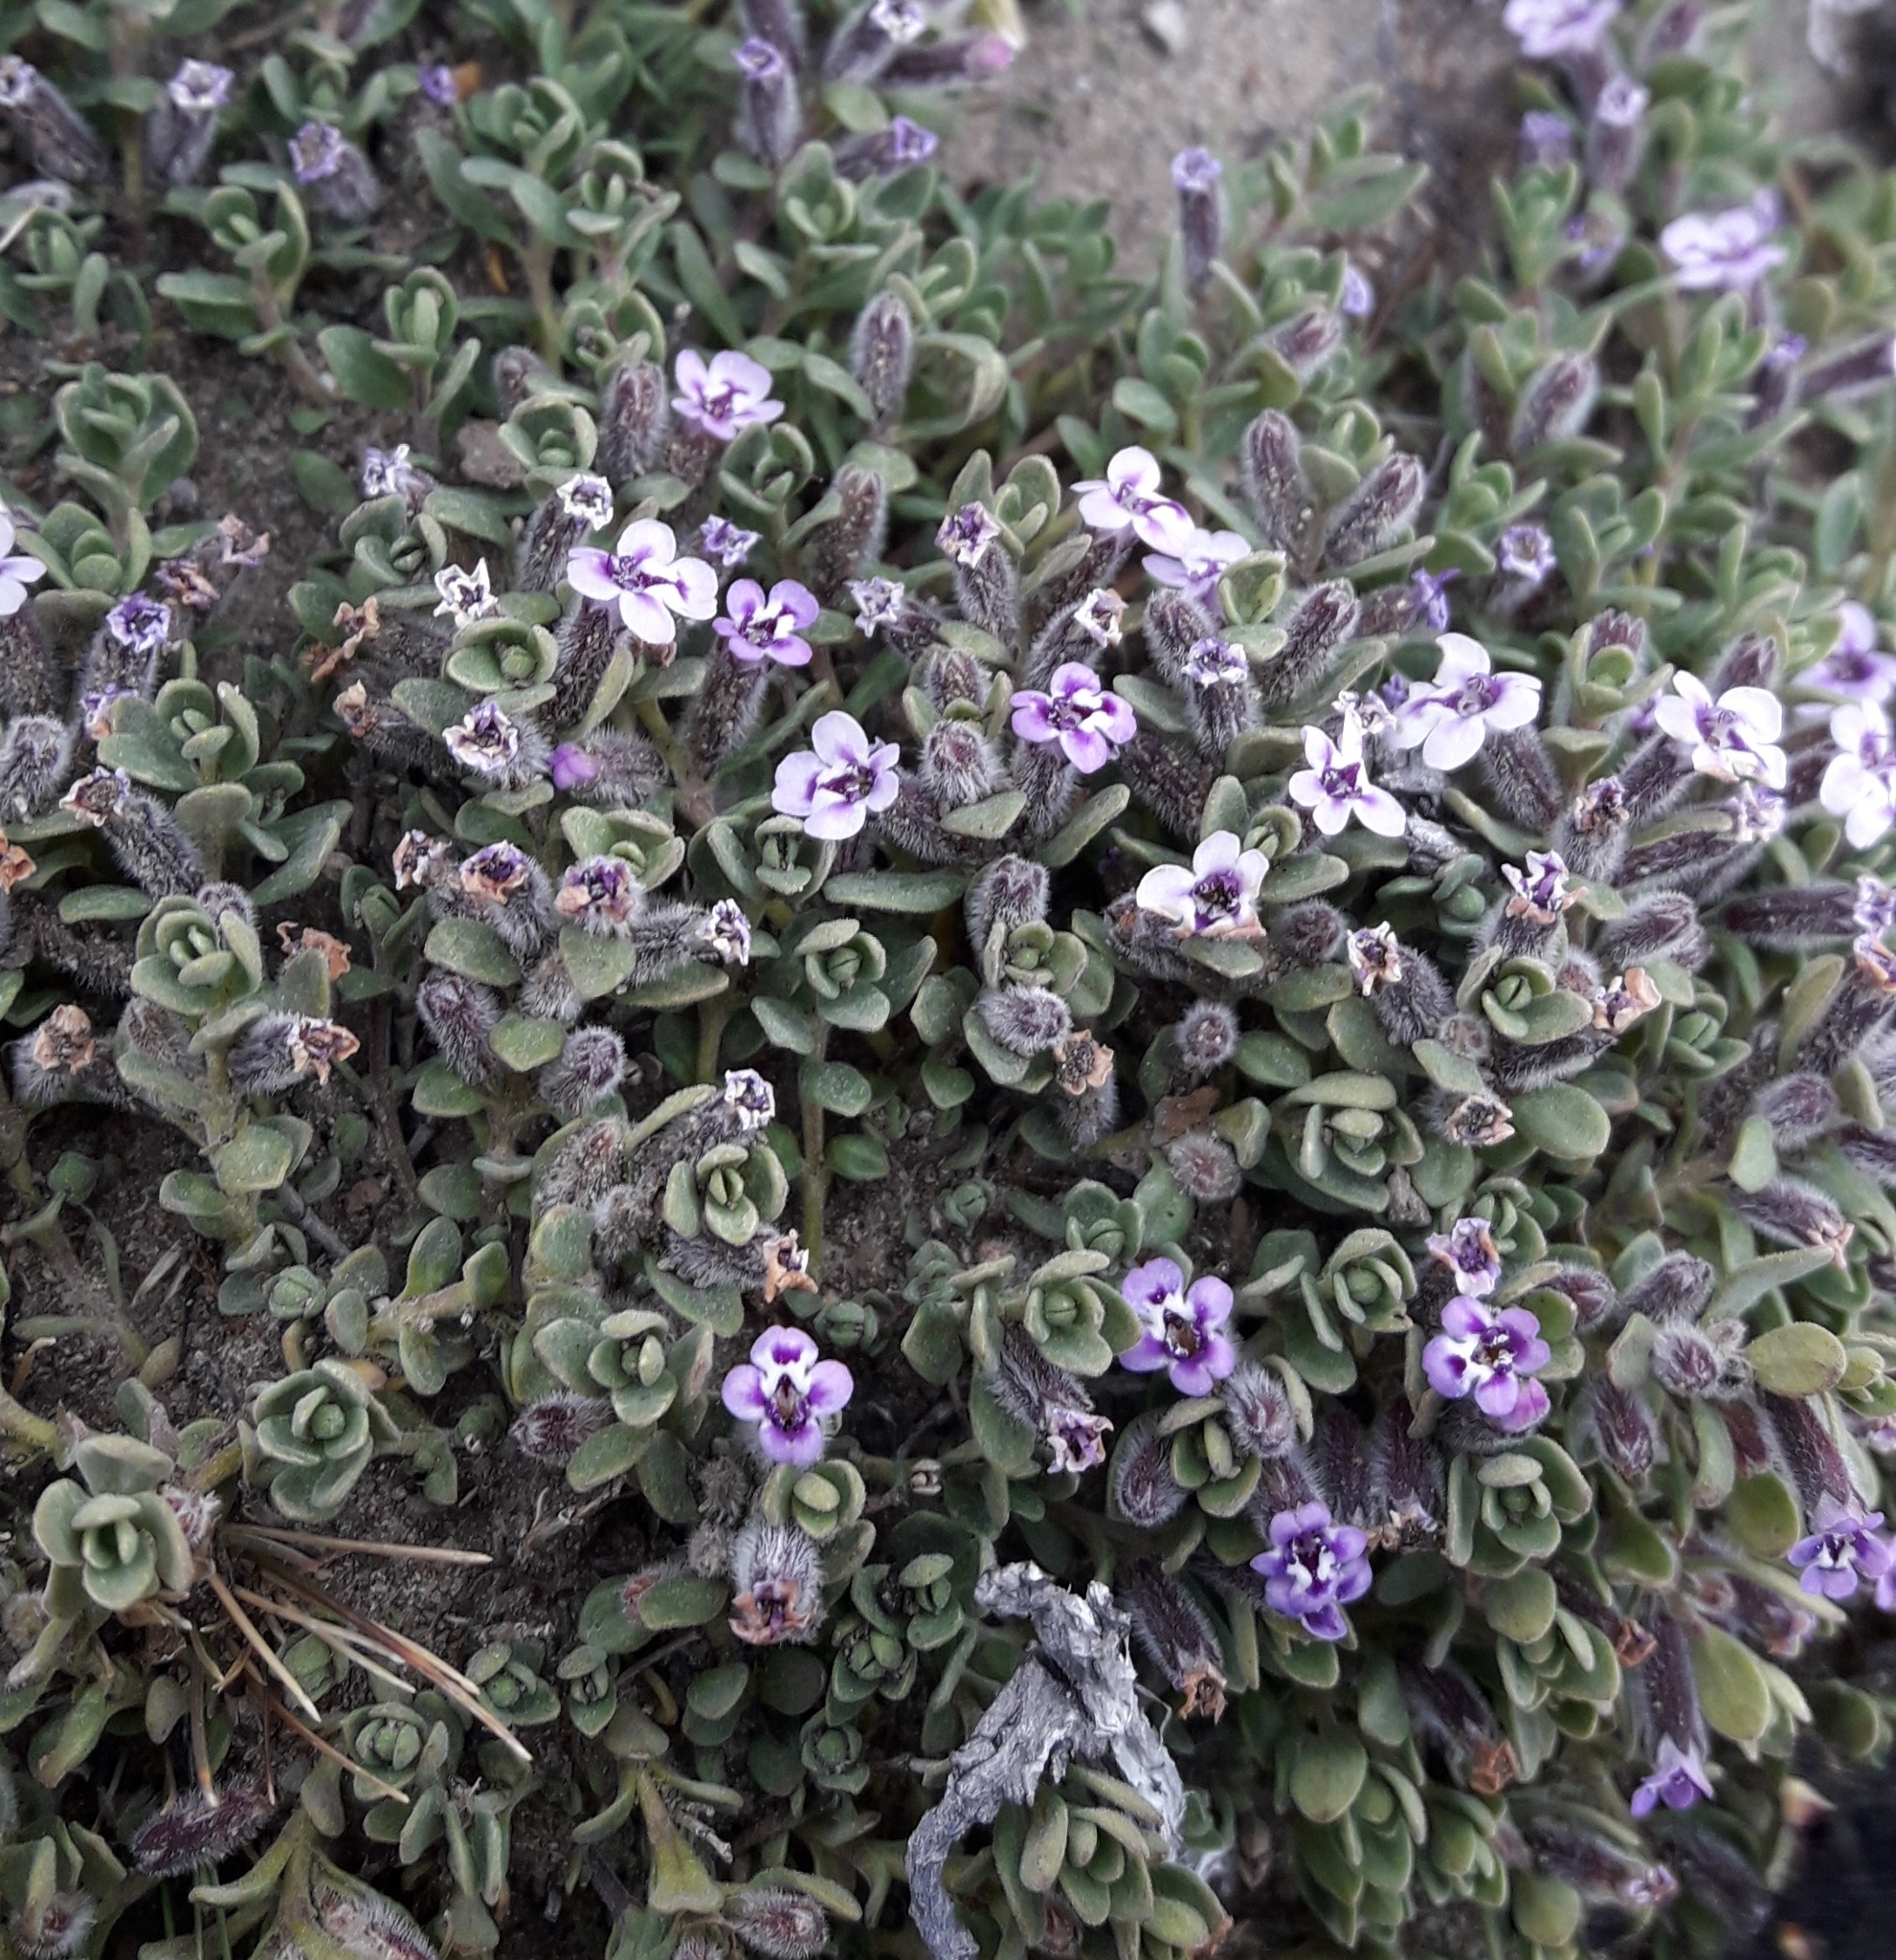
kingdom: Plantae
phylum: Tracheophyta
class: Magnoliopsida
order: Lamiales
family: Lamiaceae
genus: Clinopodium
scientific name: Clinopodium darwinii
